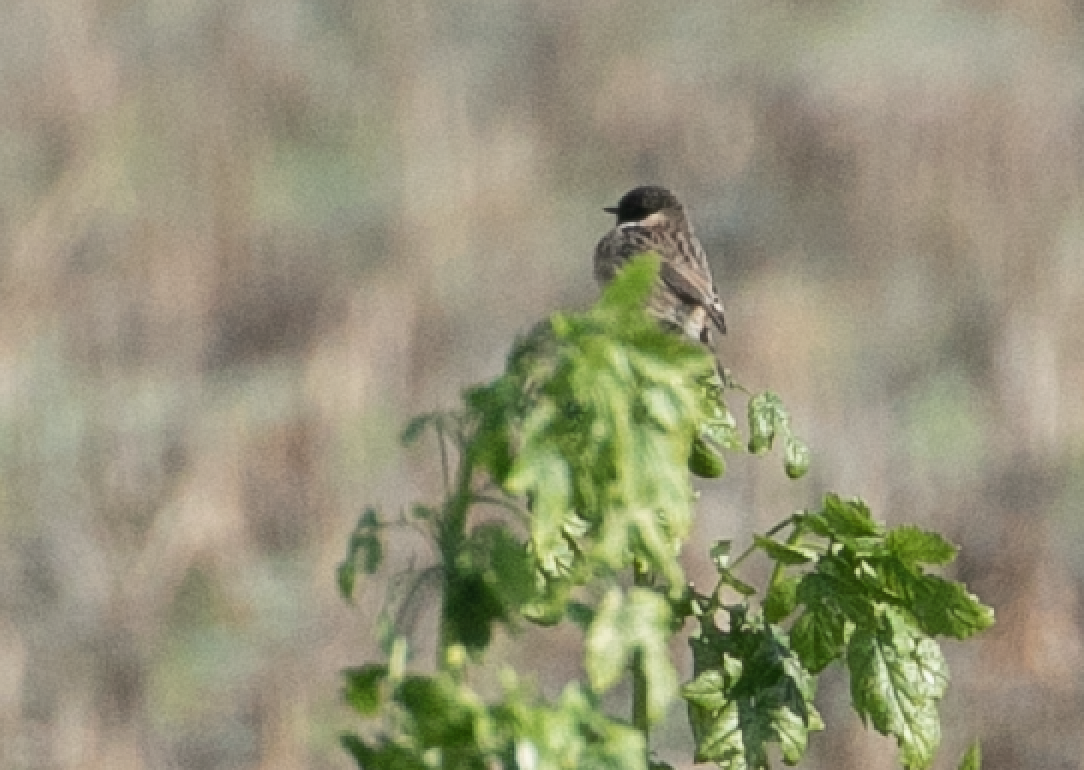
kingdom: Animalia
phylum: Chordata
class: Aves
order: Passeriformes
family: Muscicapidae
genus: Saxicola
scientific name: Saxicola rubicola
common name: European stonechat
